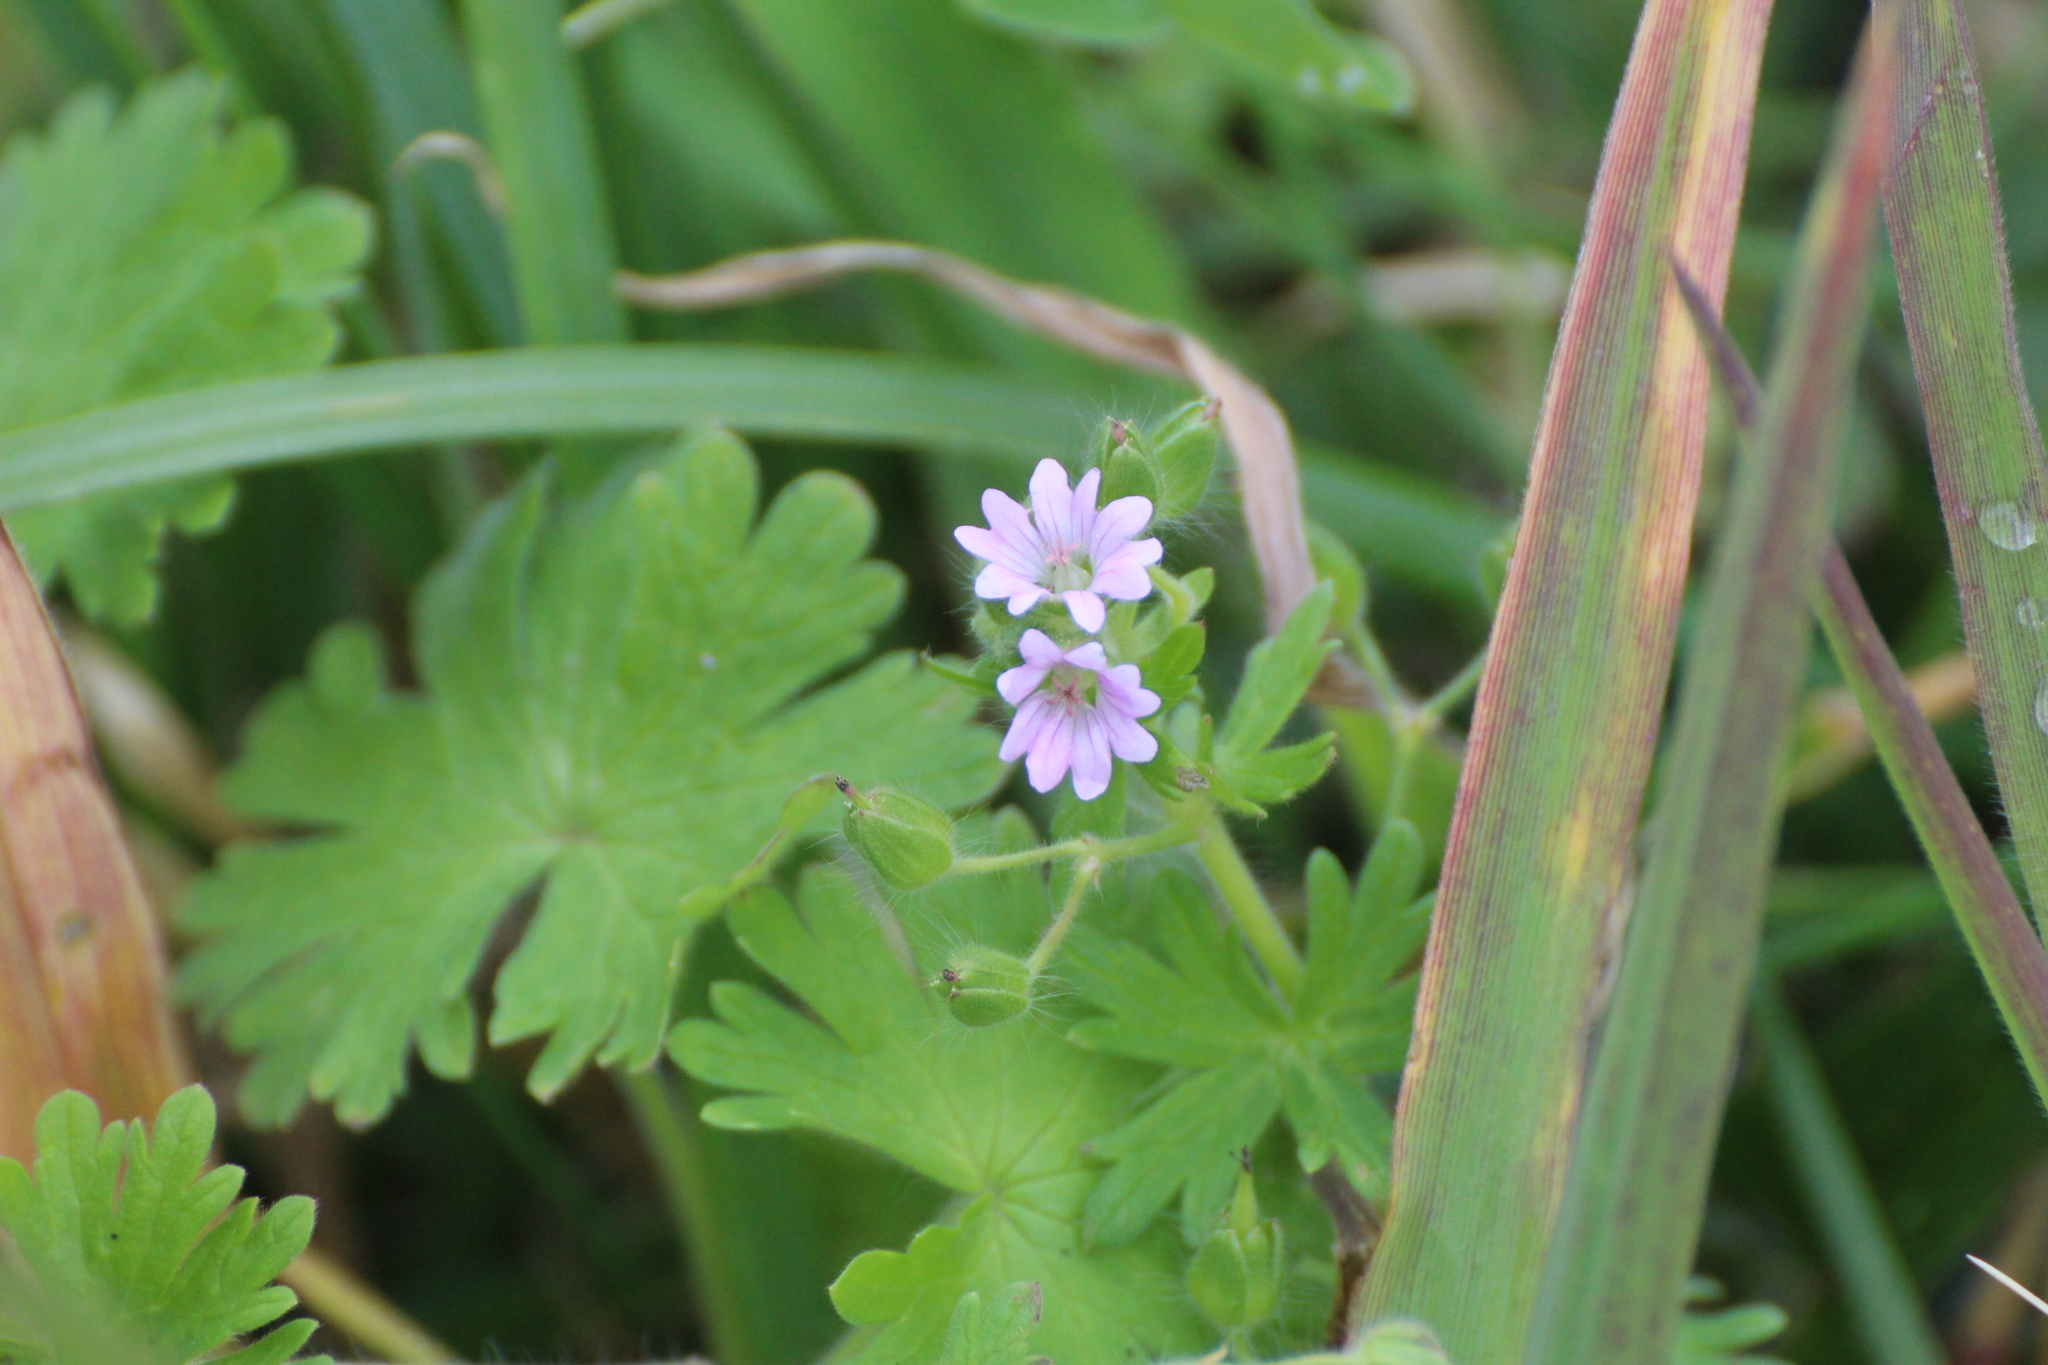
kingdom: Plantae
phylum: Tracheophyta
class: Magnoliopsida
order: Geraniales
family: Geraniaceae
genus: Geranium
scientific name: Geranium molle
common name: Dove's-foot crane's-bill
